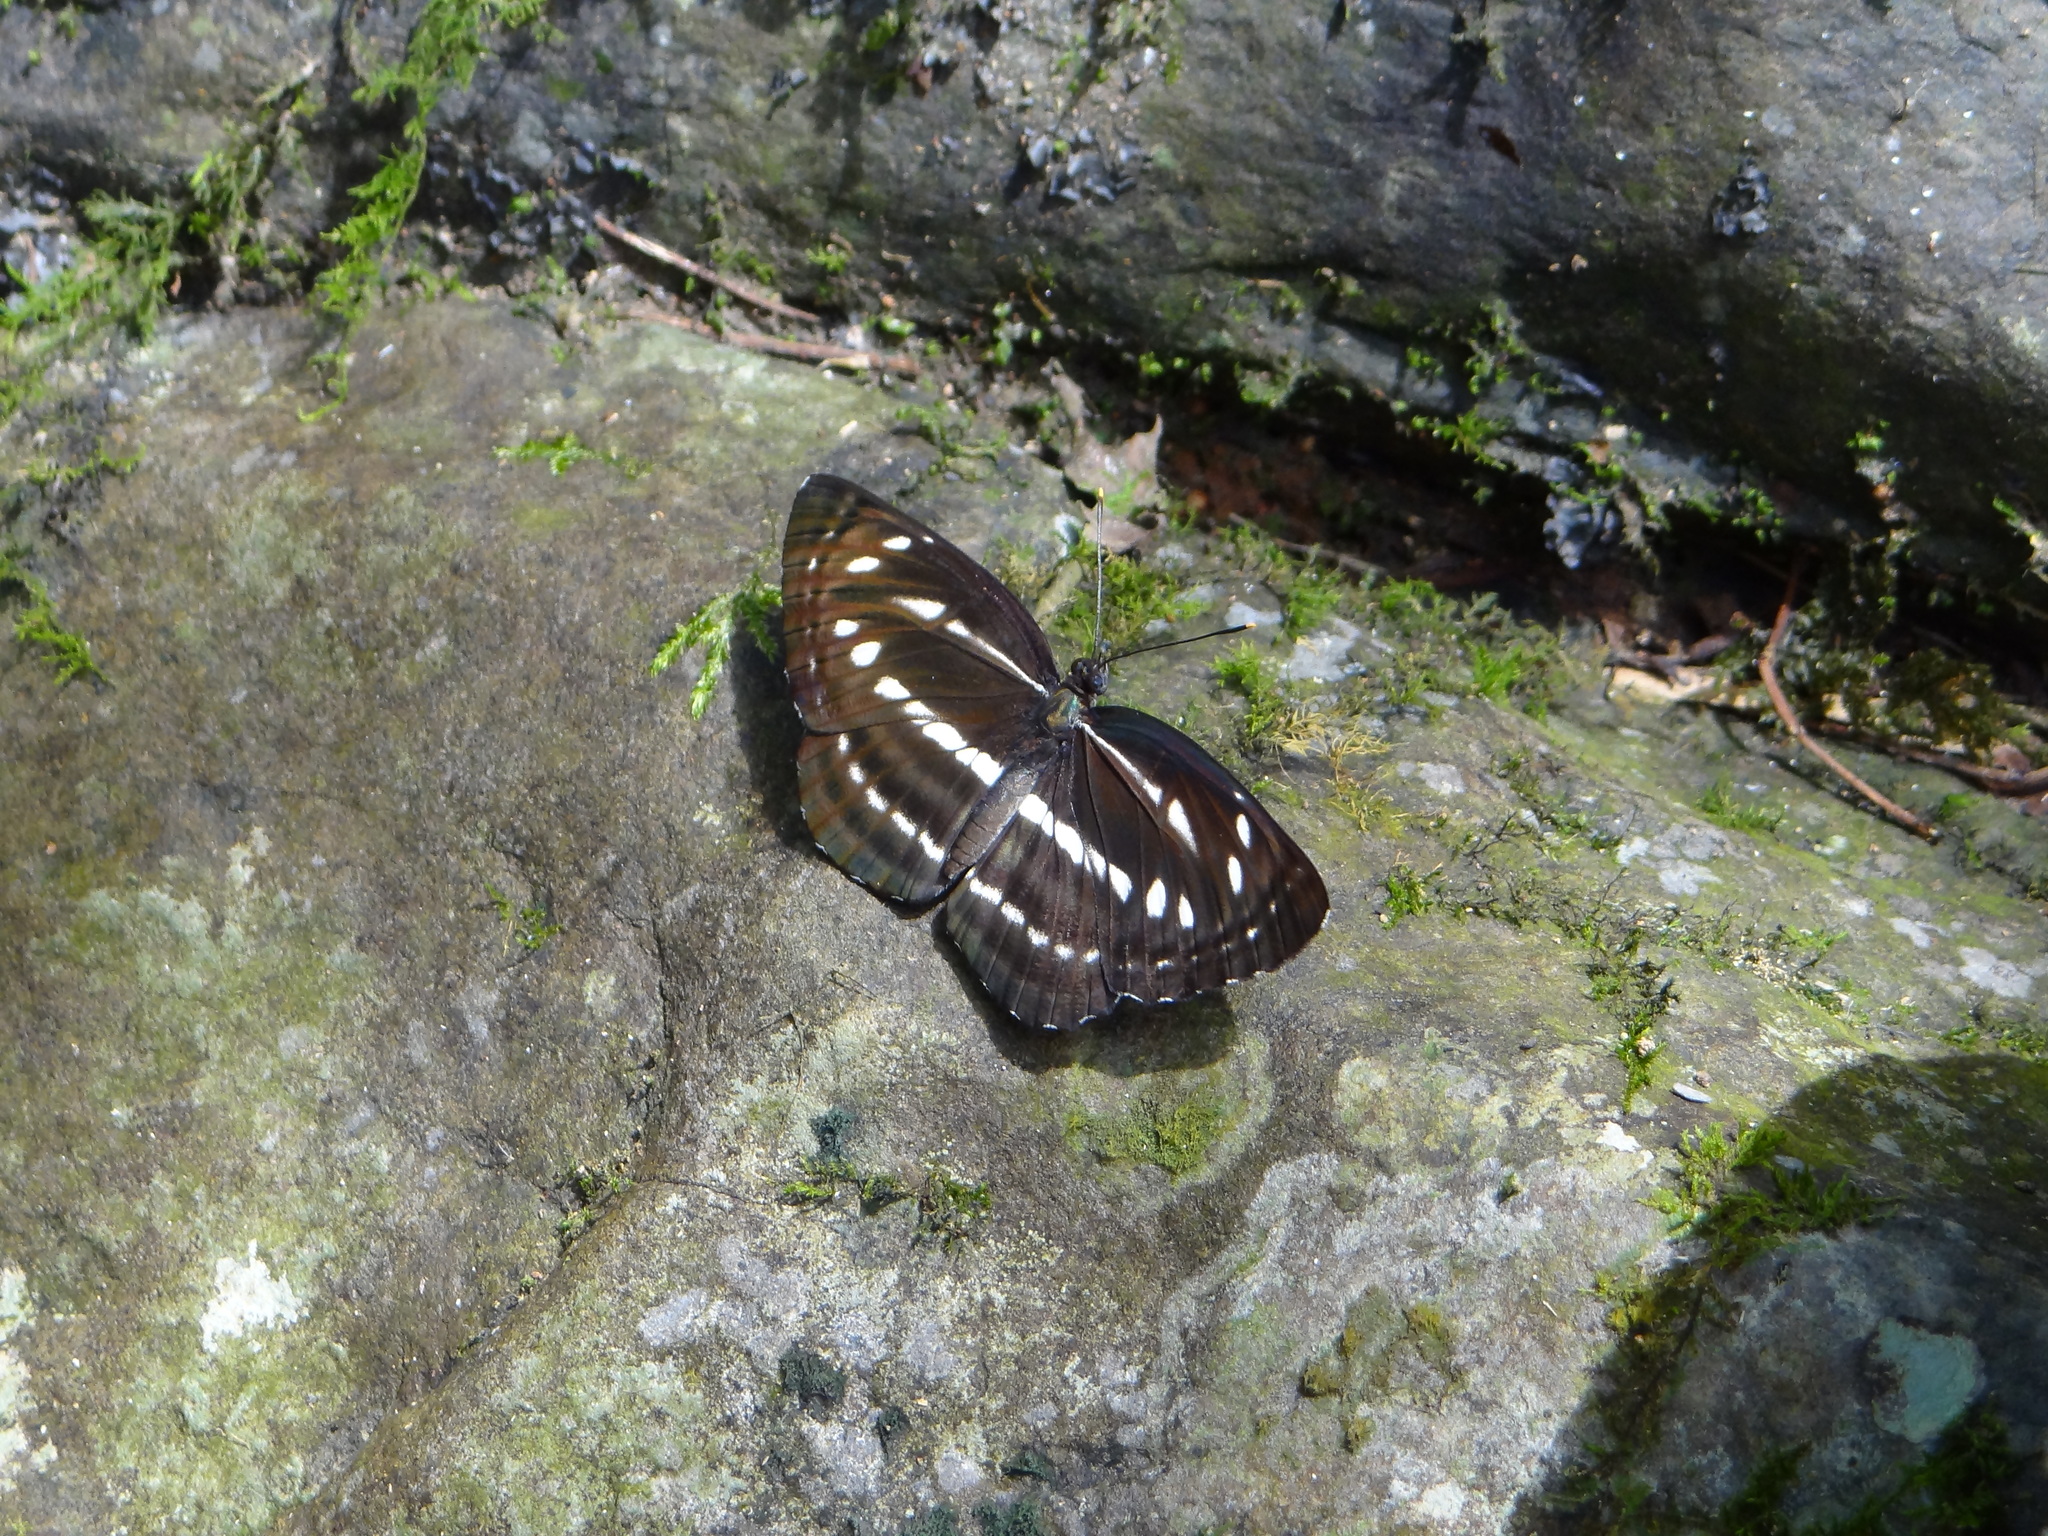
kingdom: Animalia
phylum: Arthropoda
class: Insecta
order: Lepidoptera
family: Nymphalidae
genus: Neptis
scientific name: Neptis nata
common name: Sullied brown sailer
